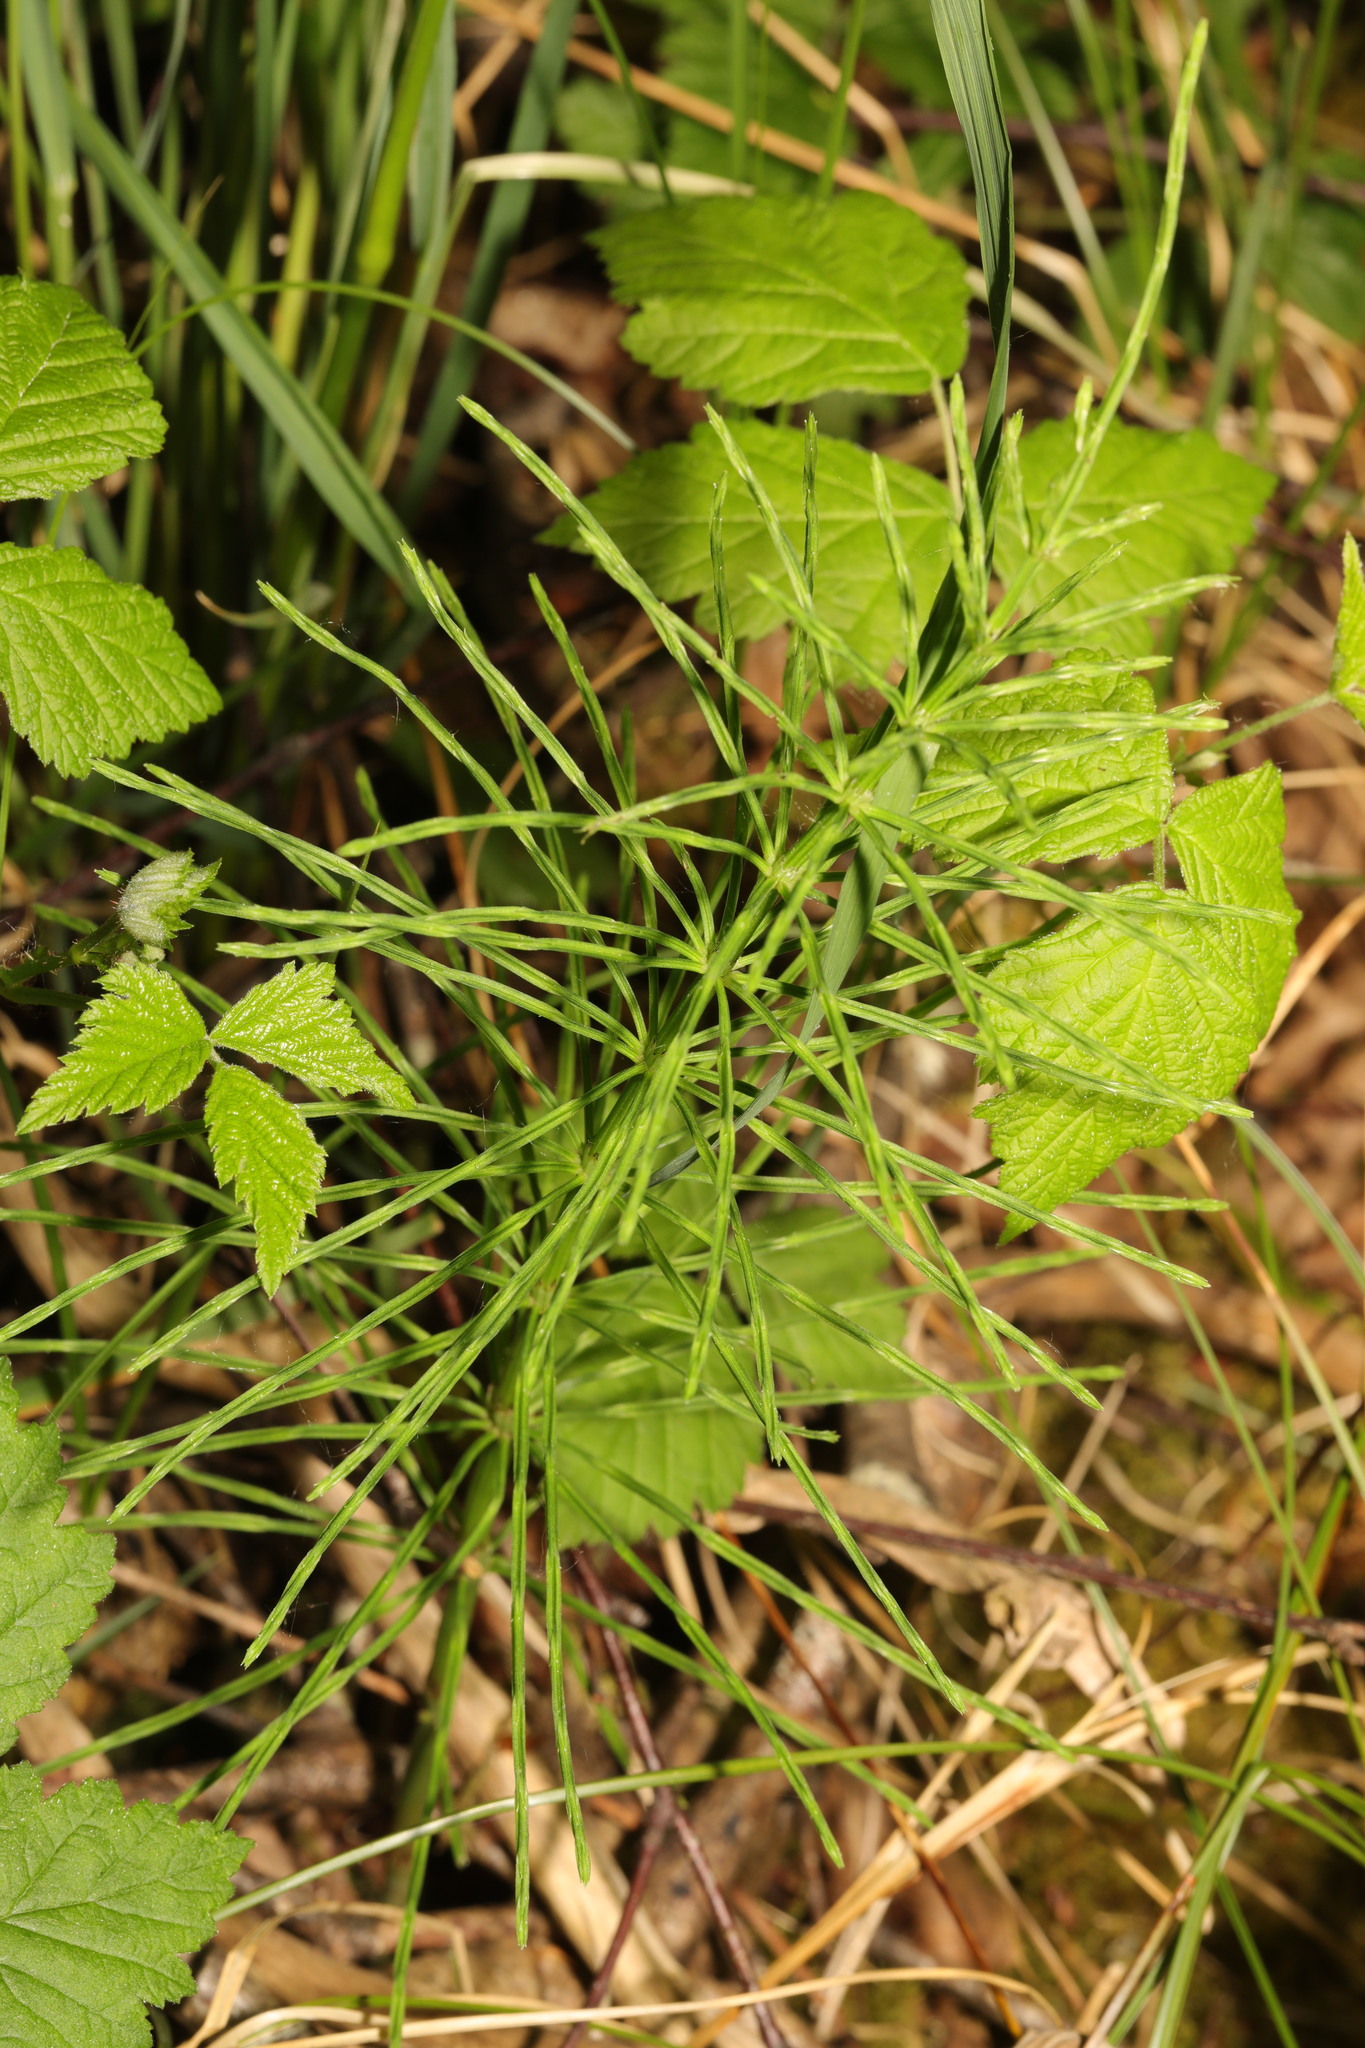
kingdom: Plantae
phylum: Tracheophyta
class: Polypodiopsida
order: Equisetales
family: Equisetaceae
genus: Equisetum
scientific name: Equisetum arvense
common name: Field horsetail
